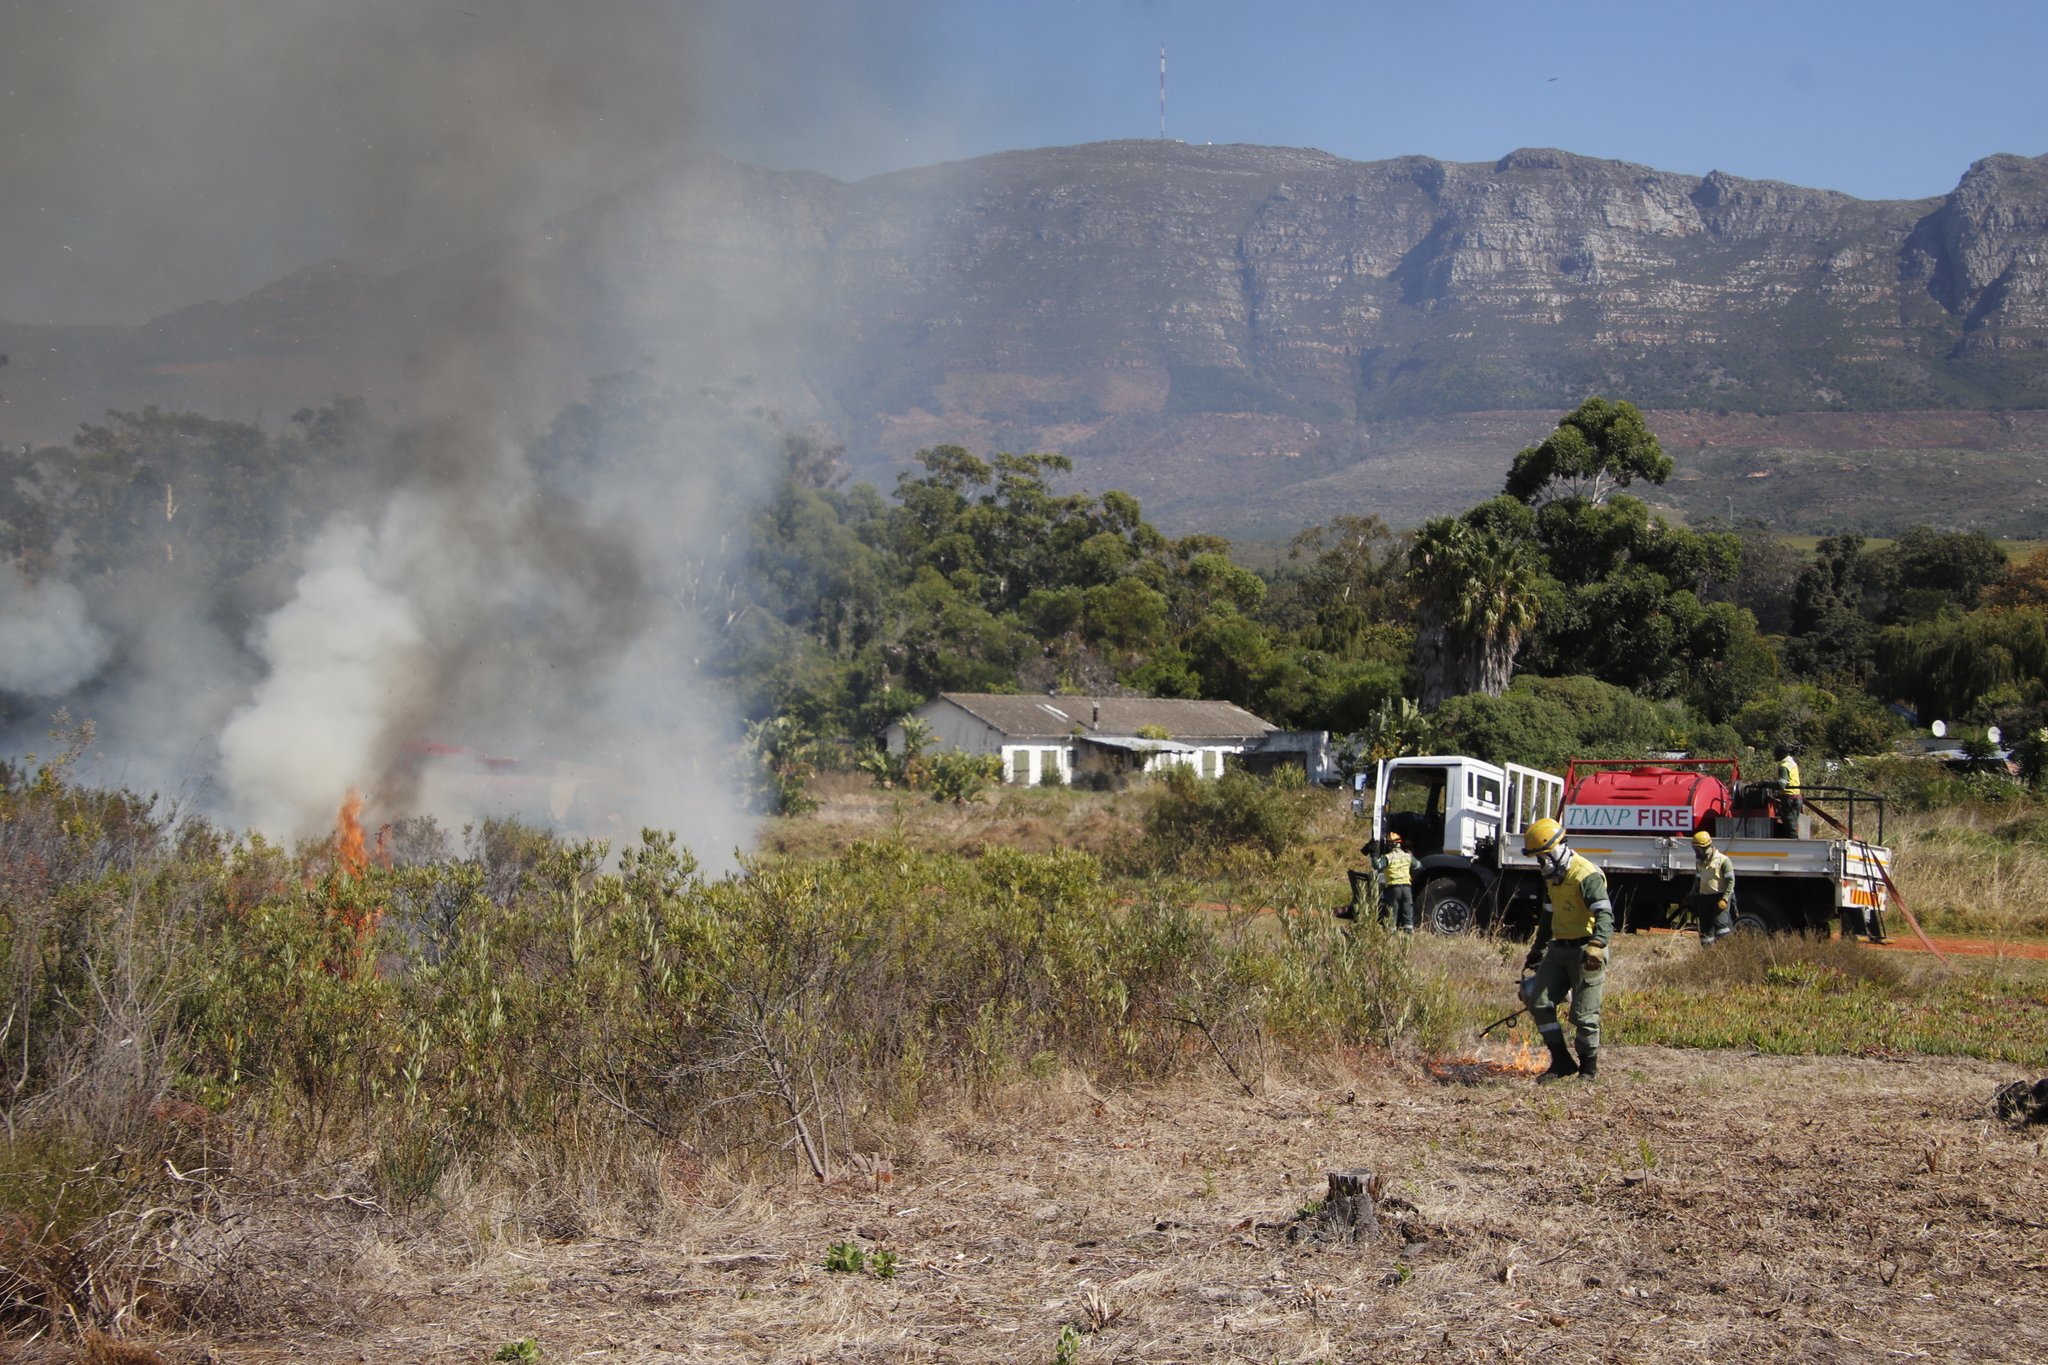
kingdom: Plantae
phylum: Tracheophyta
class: Magnoliopsida
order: Sapindales
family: Anacardiaceae
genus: Searsia
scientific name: Searsia angustifolia
